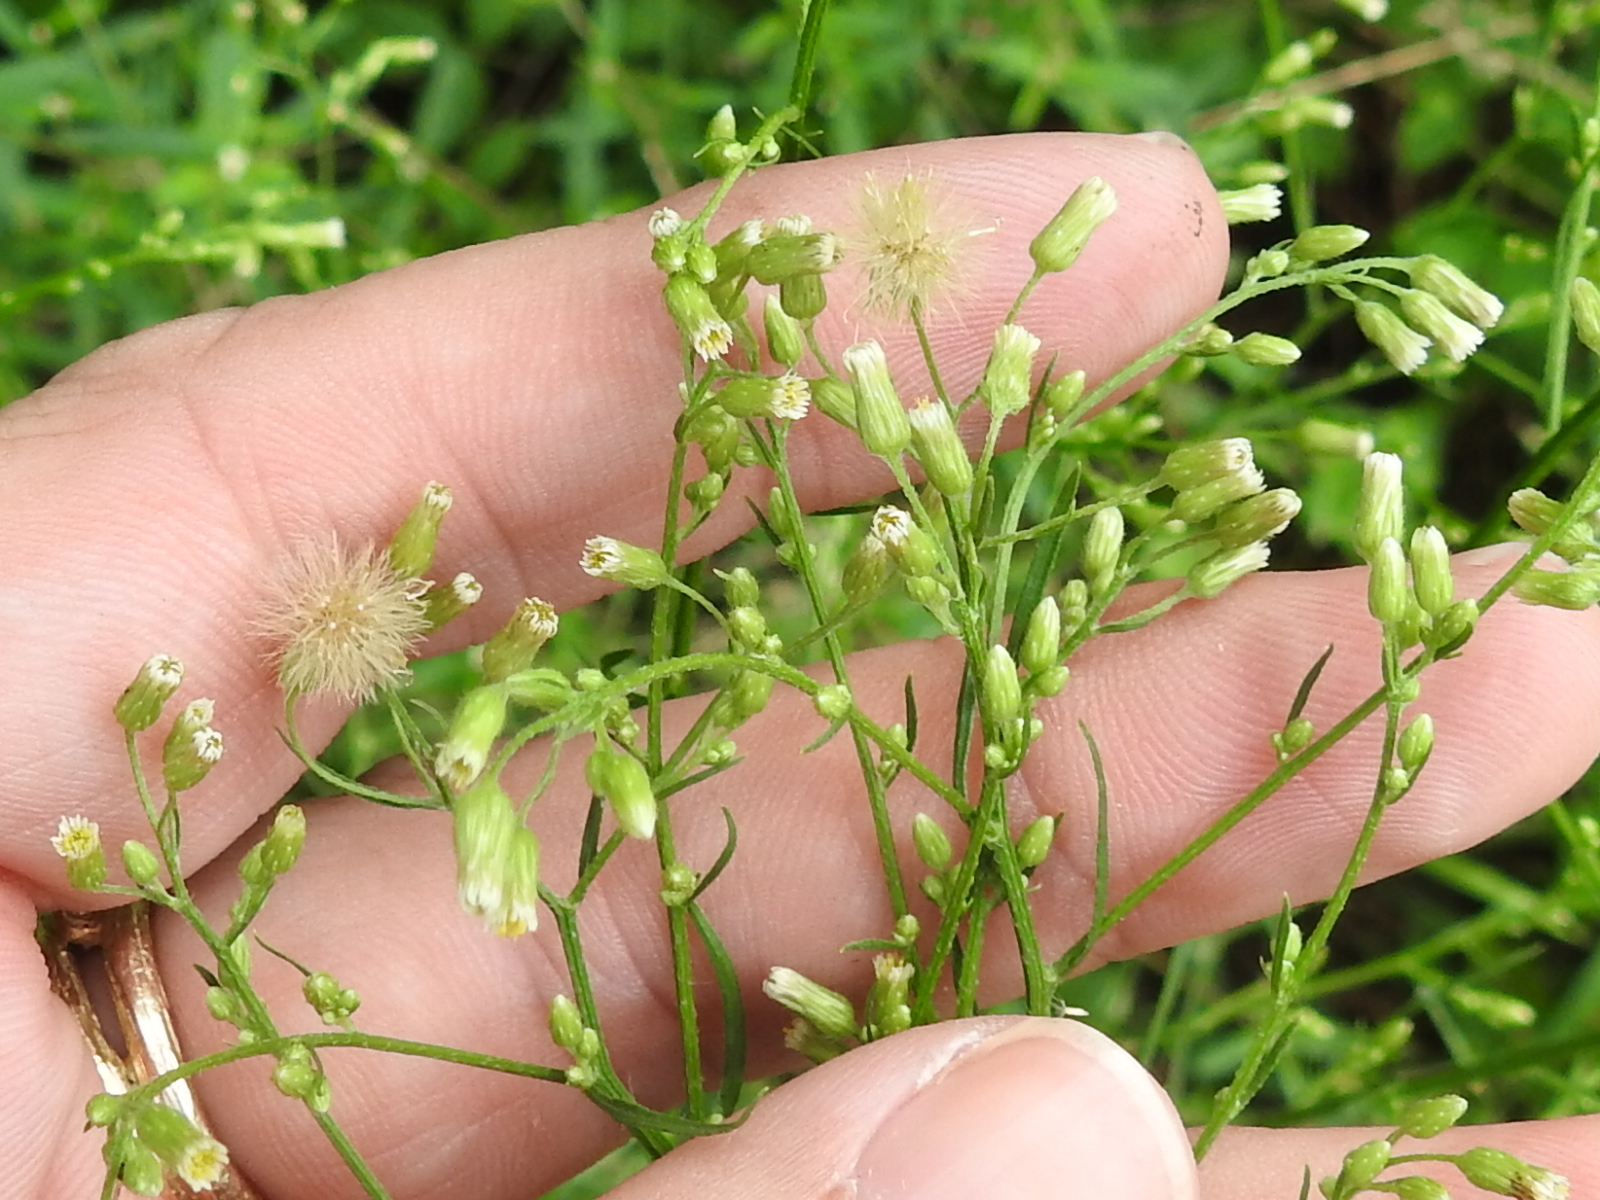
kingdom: Plantae
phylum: Tracheophyta
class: Magnoliopsida
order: Asterales
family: Asteraceae
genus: Erigeron
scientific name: Erigeron canadensis
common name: Canadian fleabane
